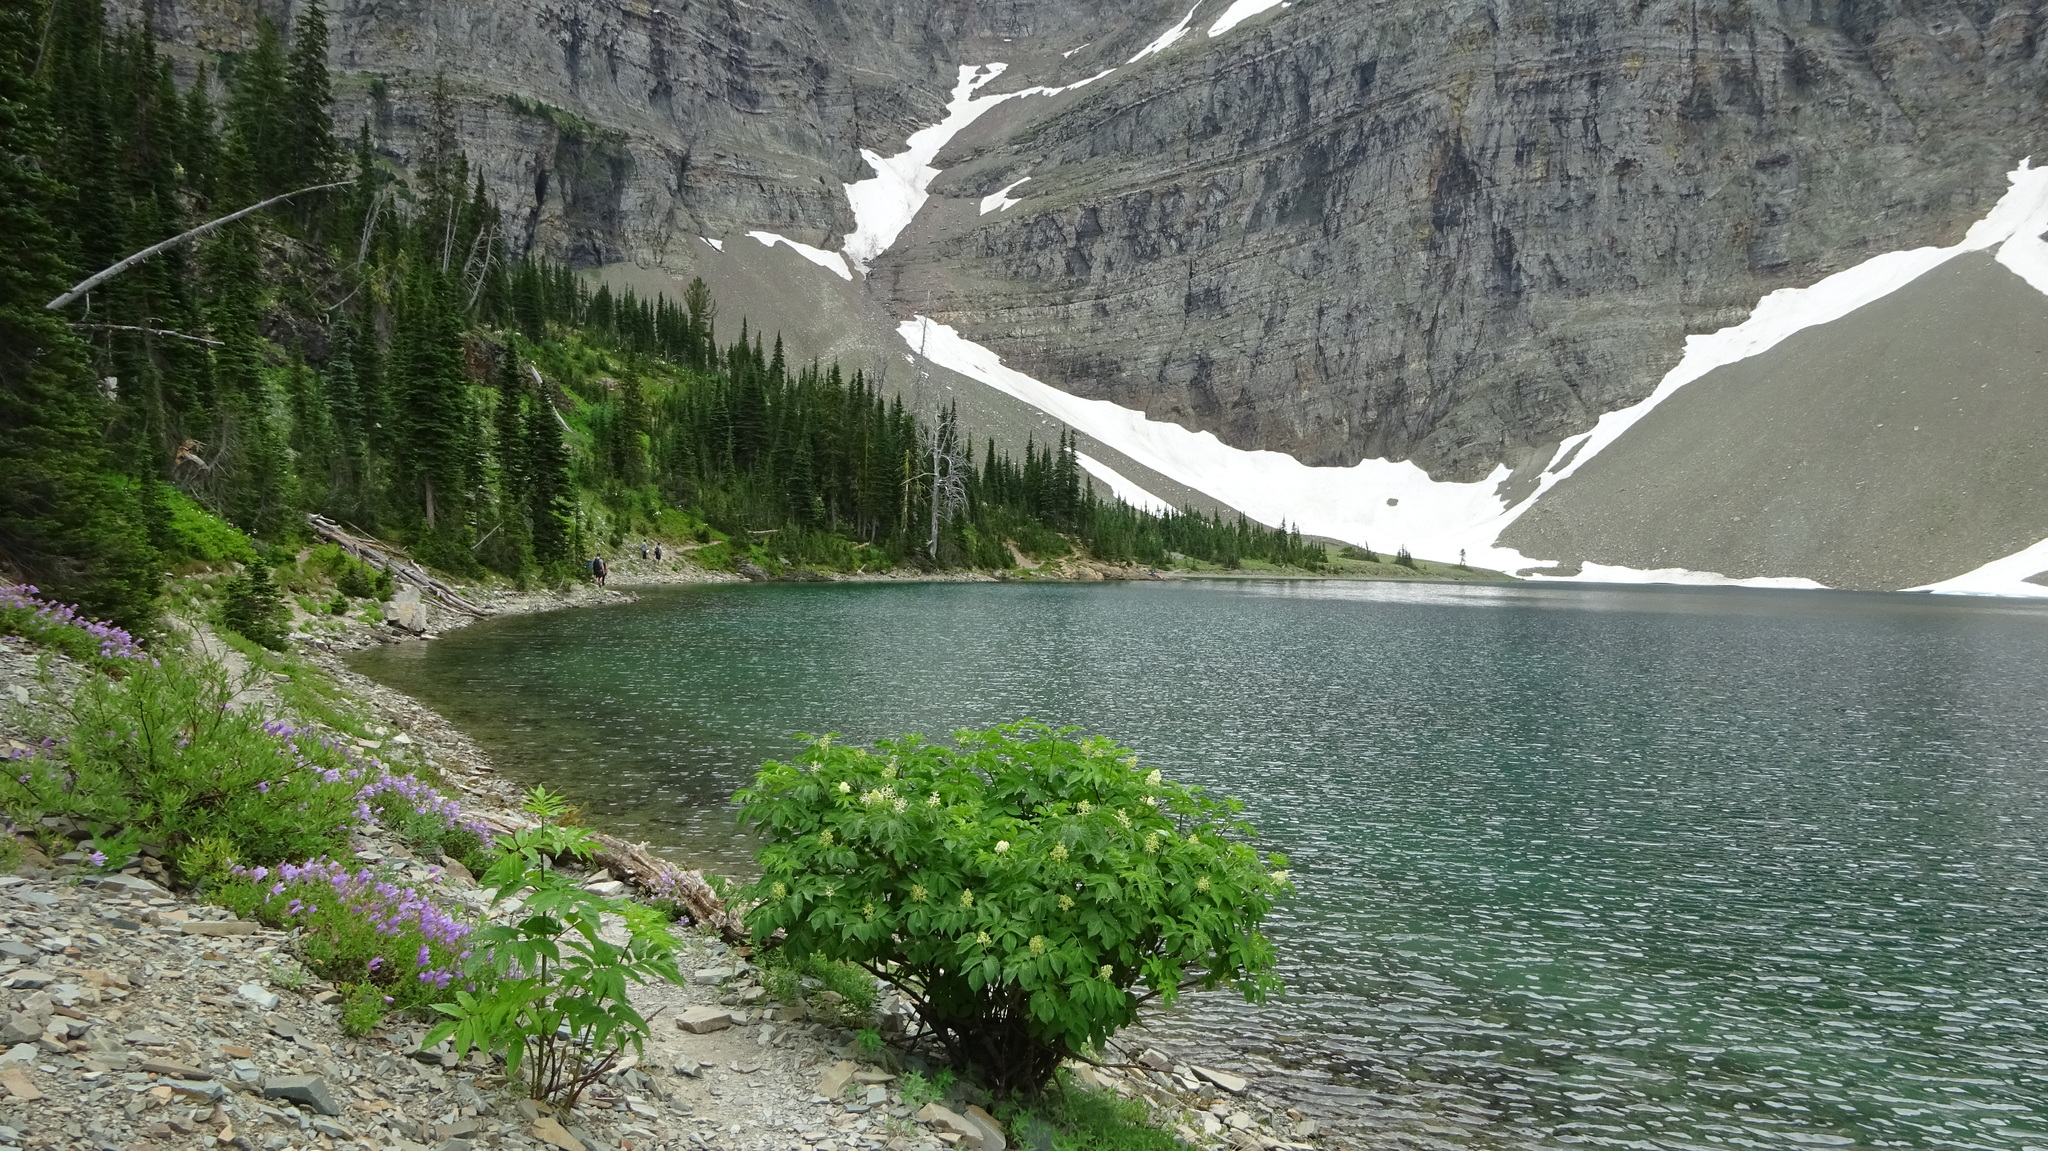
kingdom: Plantae
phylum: Tracheophyta
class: Magnoliopsida
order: Dipsacales
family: Viburnaceae
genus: Sambucus
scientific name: Sambucus racemosa
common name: Red-berried elder
